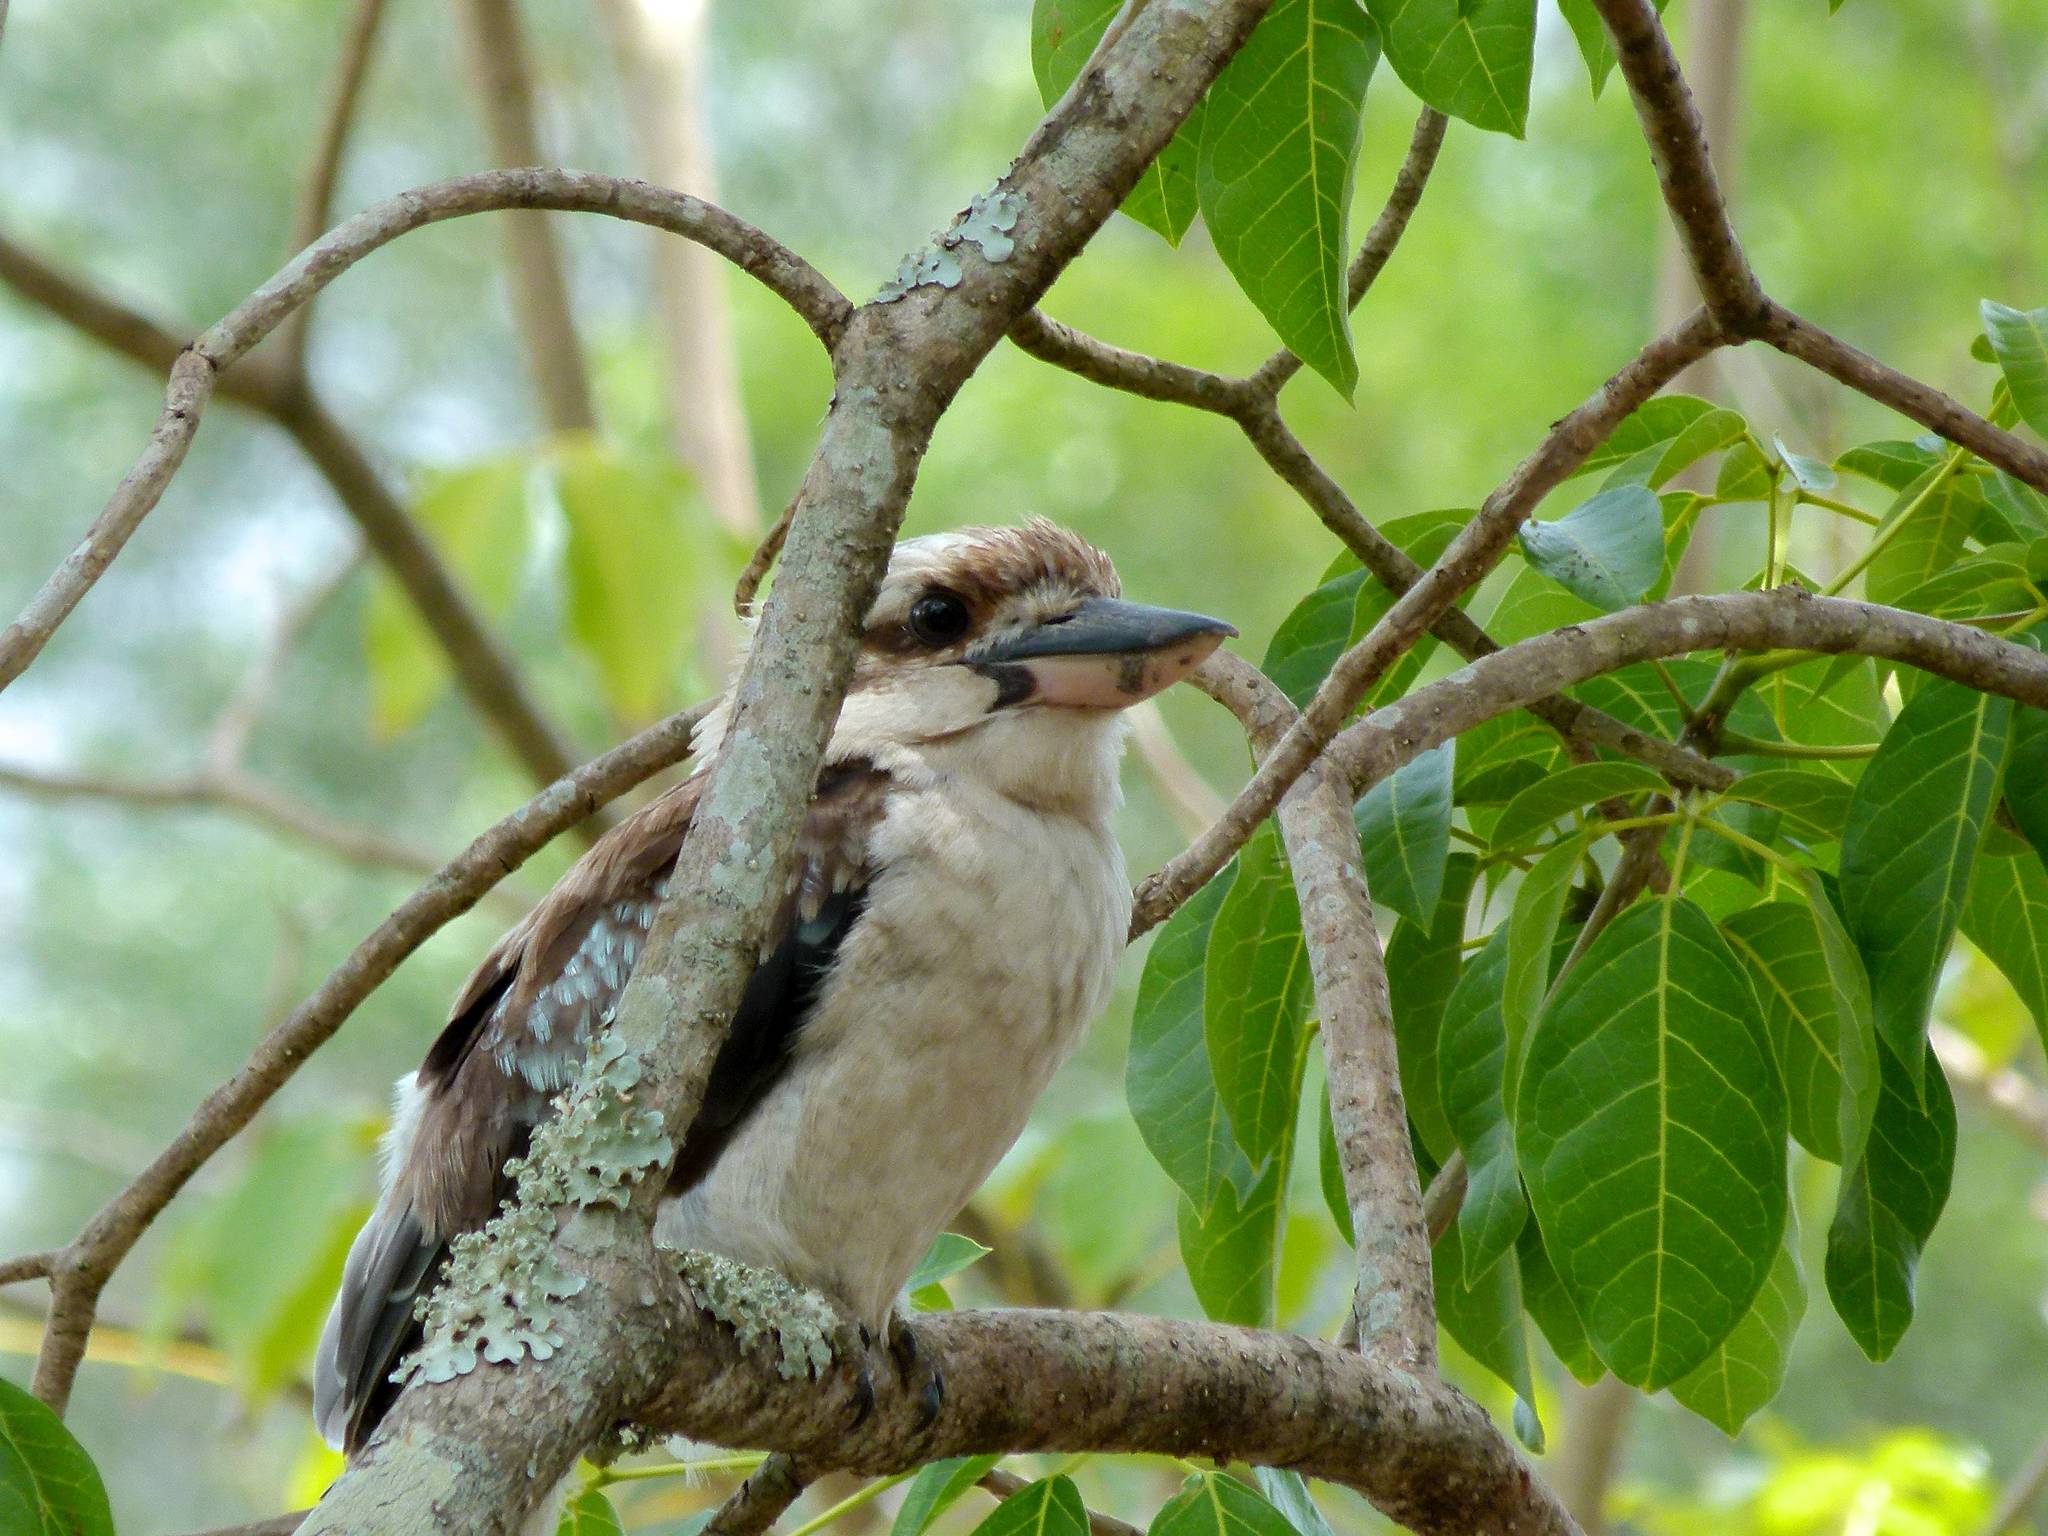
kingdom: Animalia
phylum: Chordata
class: Aves
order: Coraciiformes
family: Alcedinidae
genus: Dacelo
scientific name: Dacelo novaeguineae
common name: Laughing kookaburra
